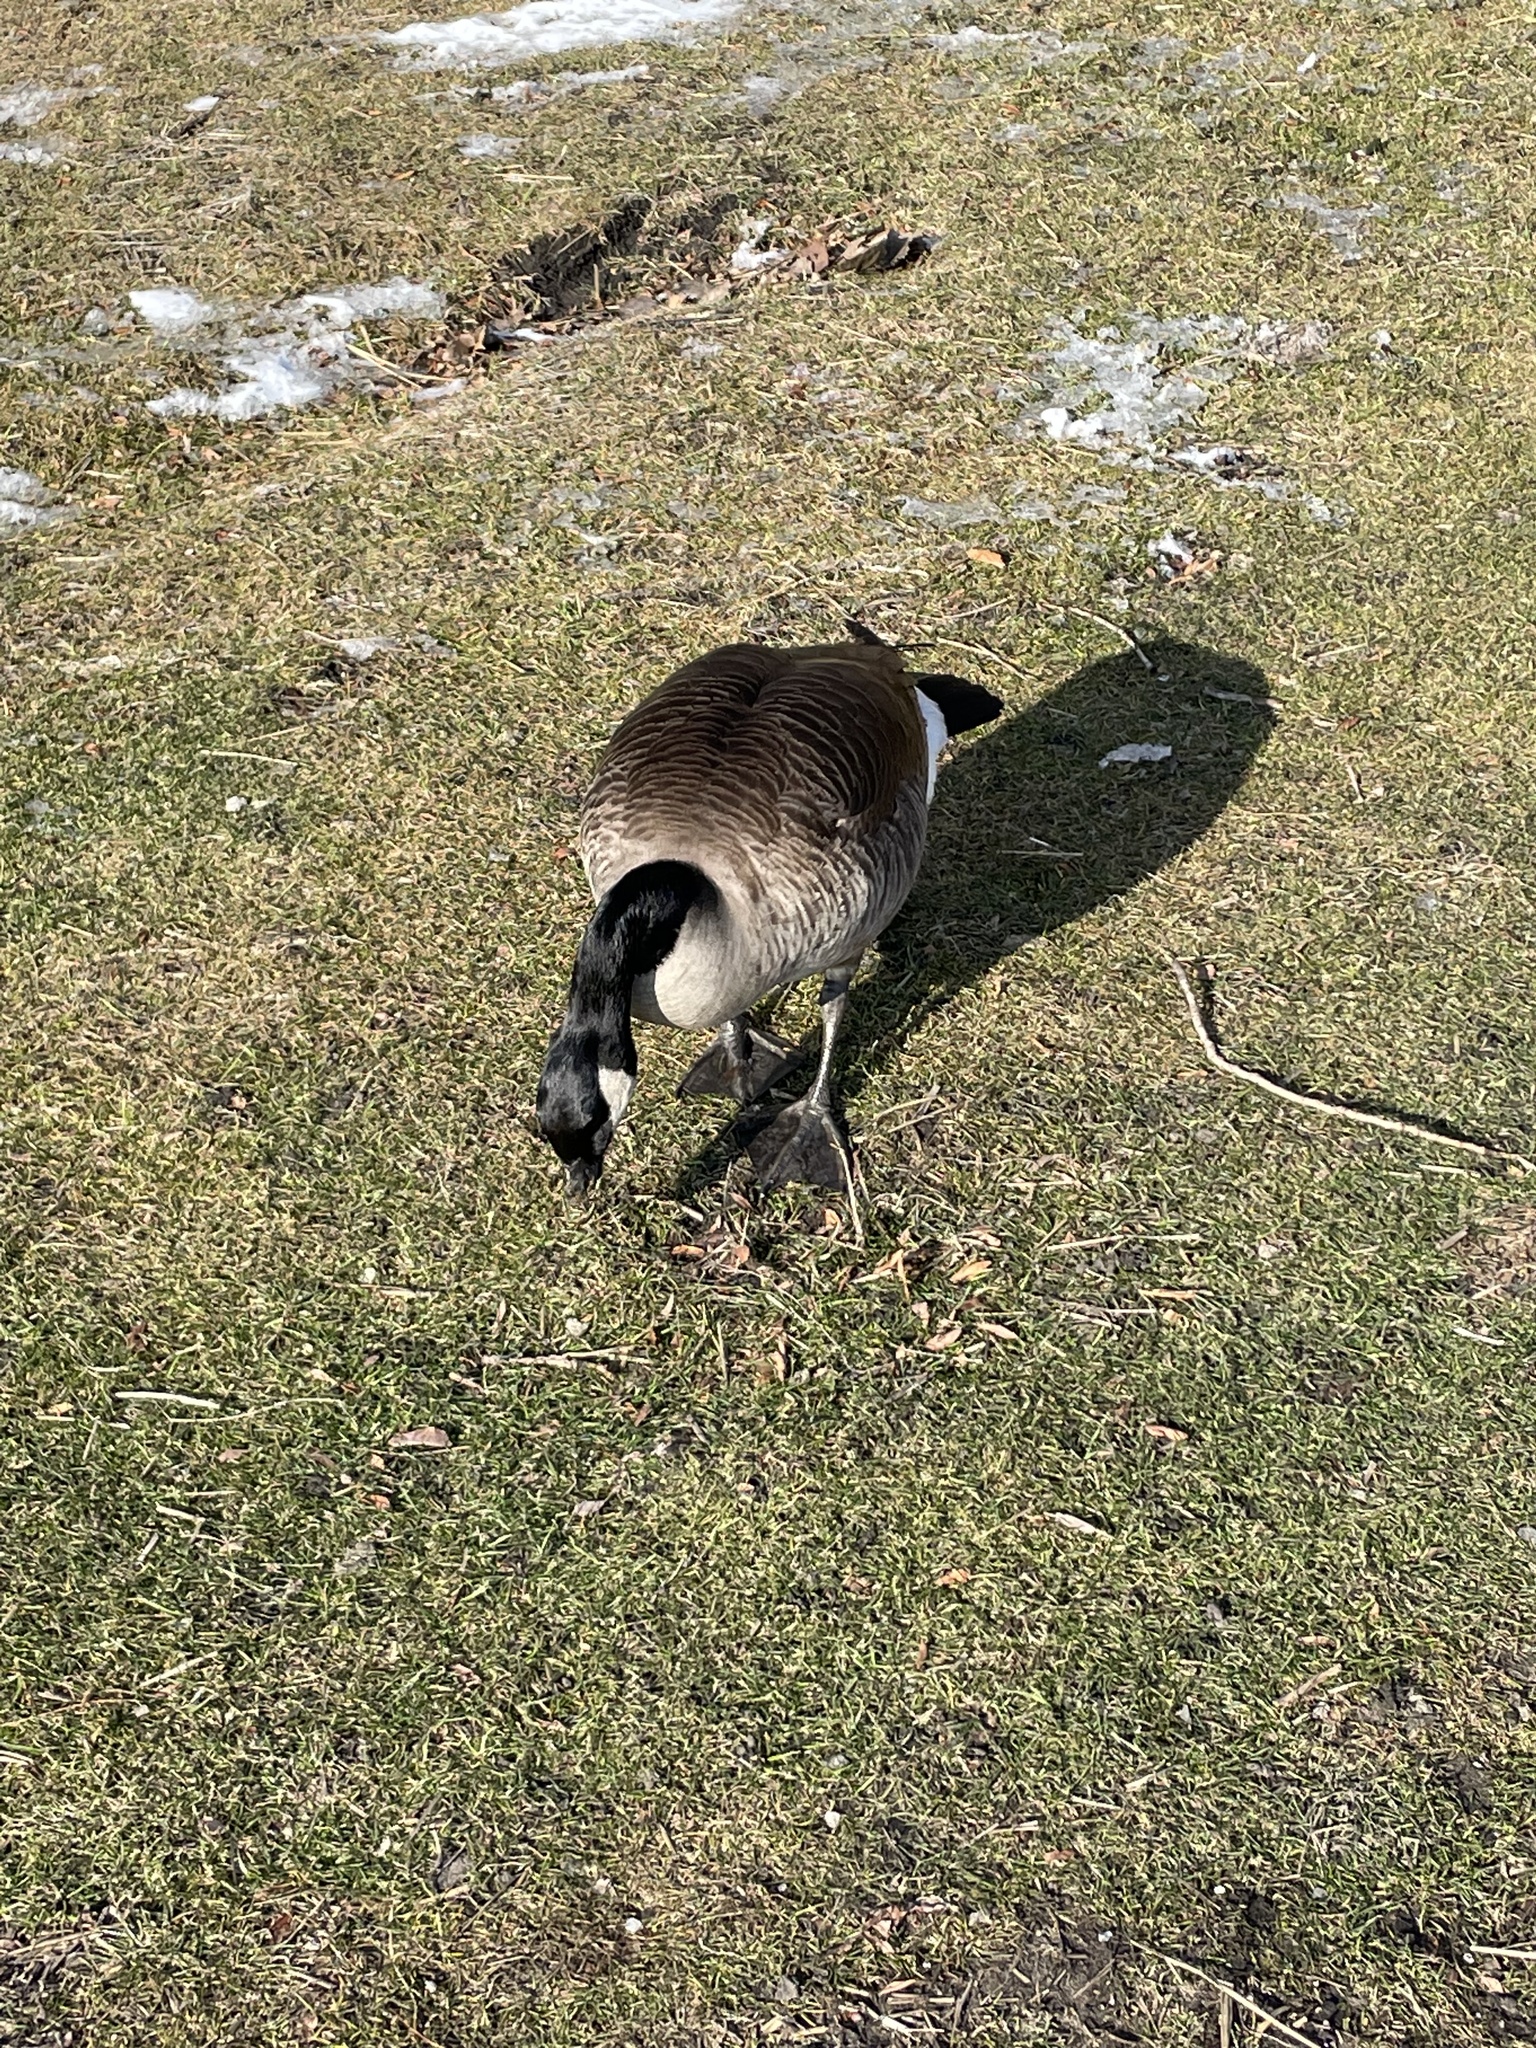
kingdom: Animalia
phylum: Chordata
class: Aves
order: Anseriformes
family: Anatidae
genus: Branta
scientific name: Branta canadensis
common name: Canada goose
